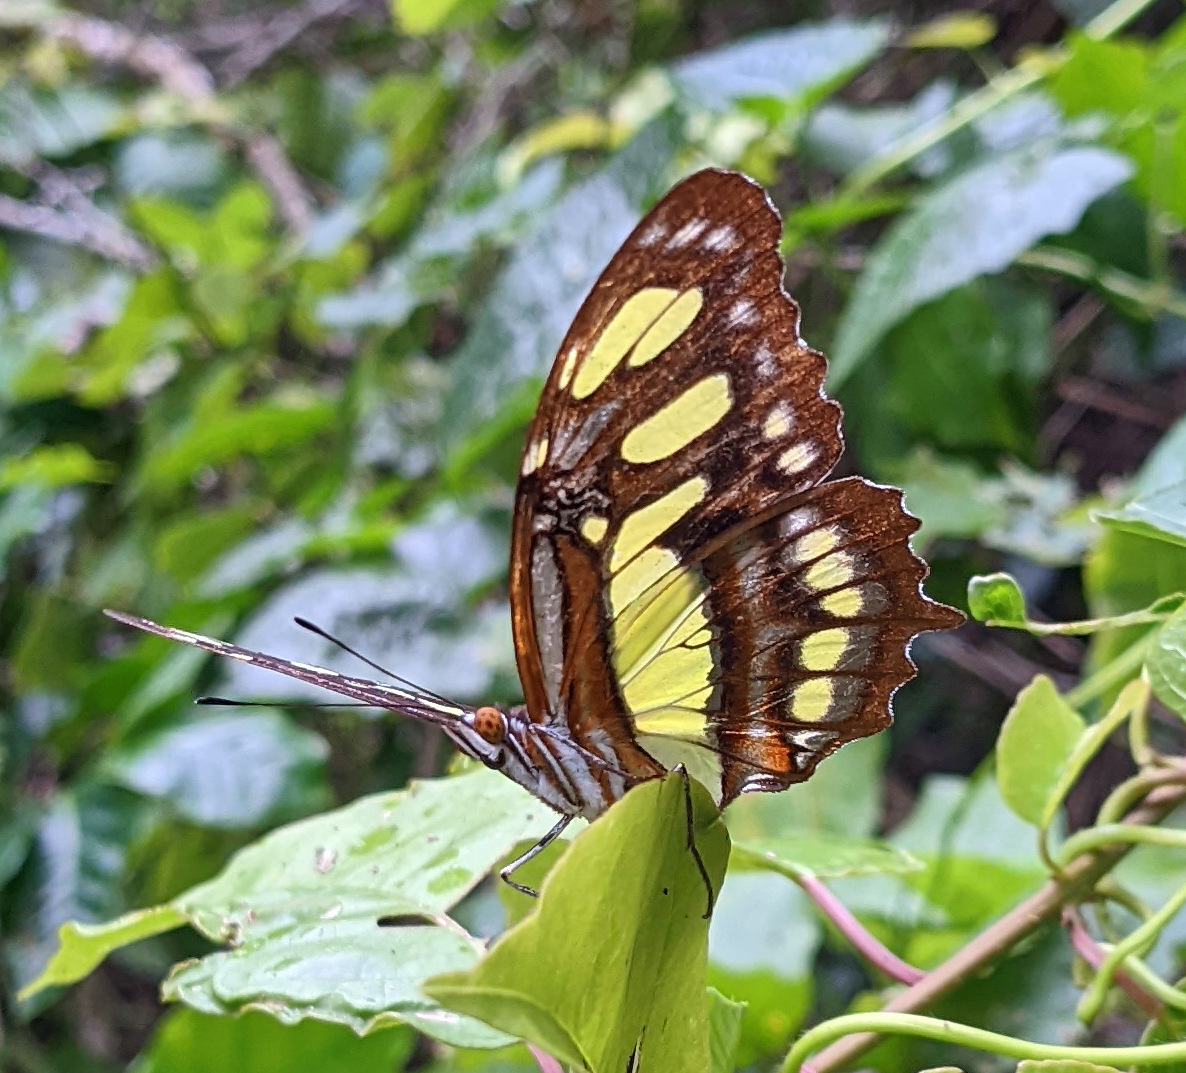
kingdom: Animalia
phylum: Arthropoda
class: Insecta
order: Lepidoptera
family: Nymphalidae
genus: Siproeta
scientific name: Siproeta stelenes
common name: Malachite
